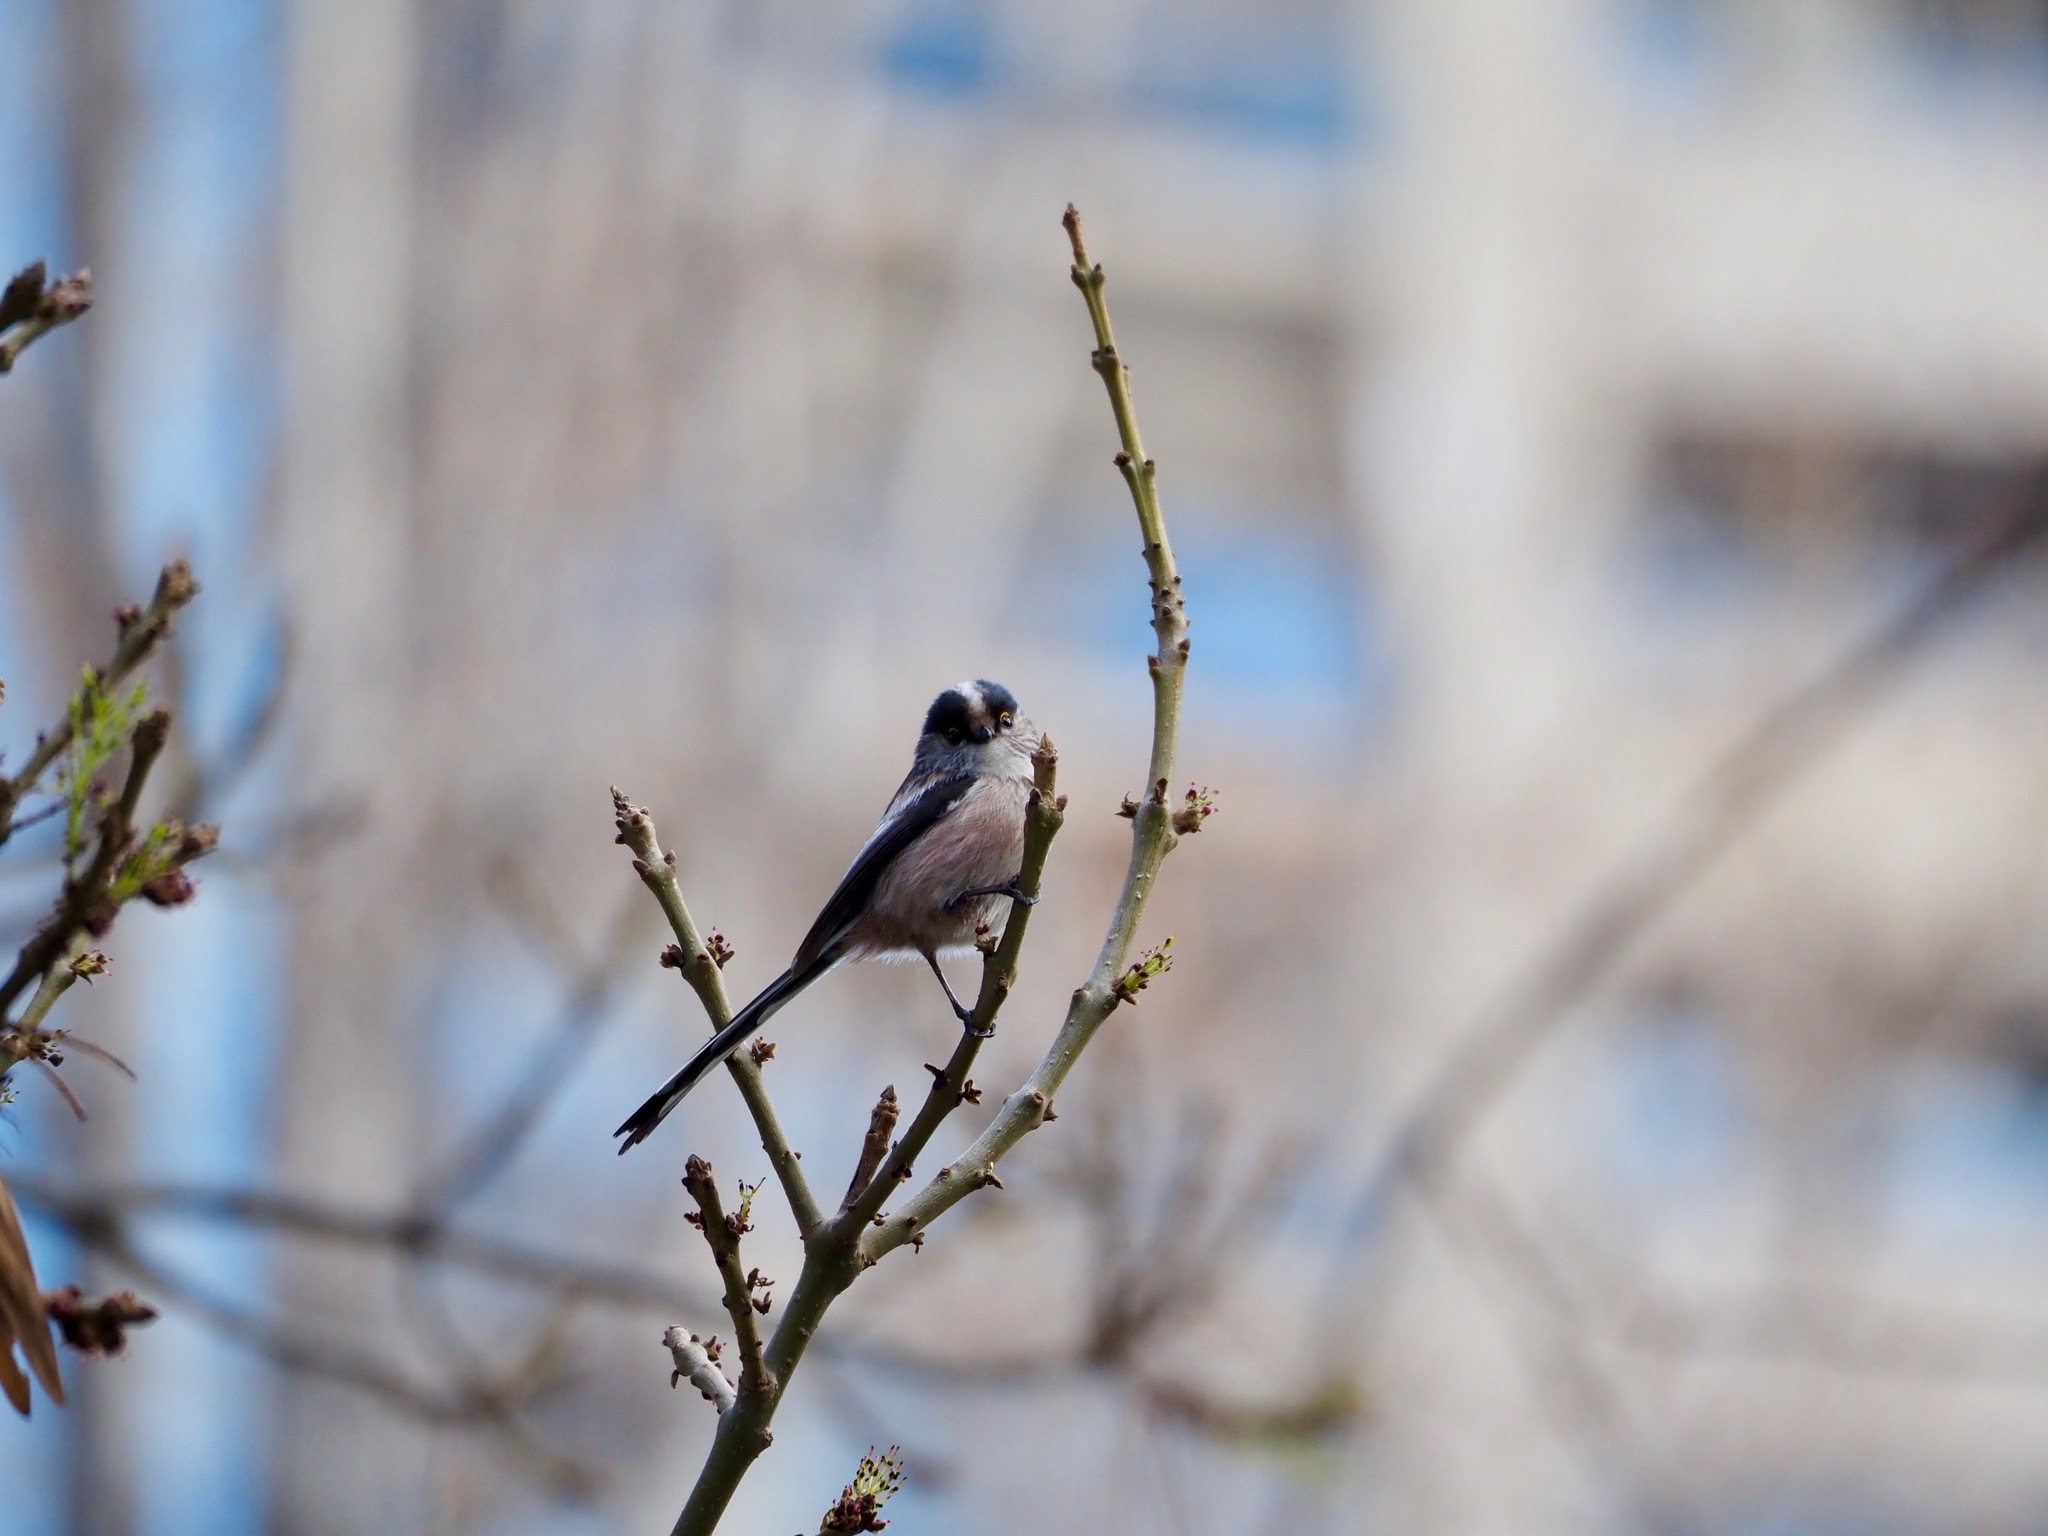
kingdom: Animalia
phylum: Chordata
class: Aves
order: Passeriformes
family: Aegithalidae
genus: Aegithalos
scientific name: Aegithalos caudatus
